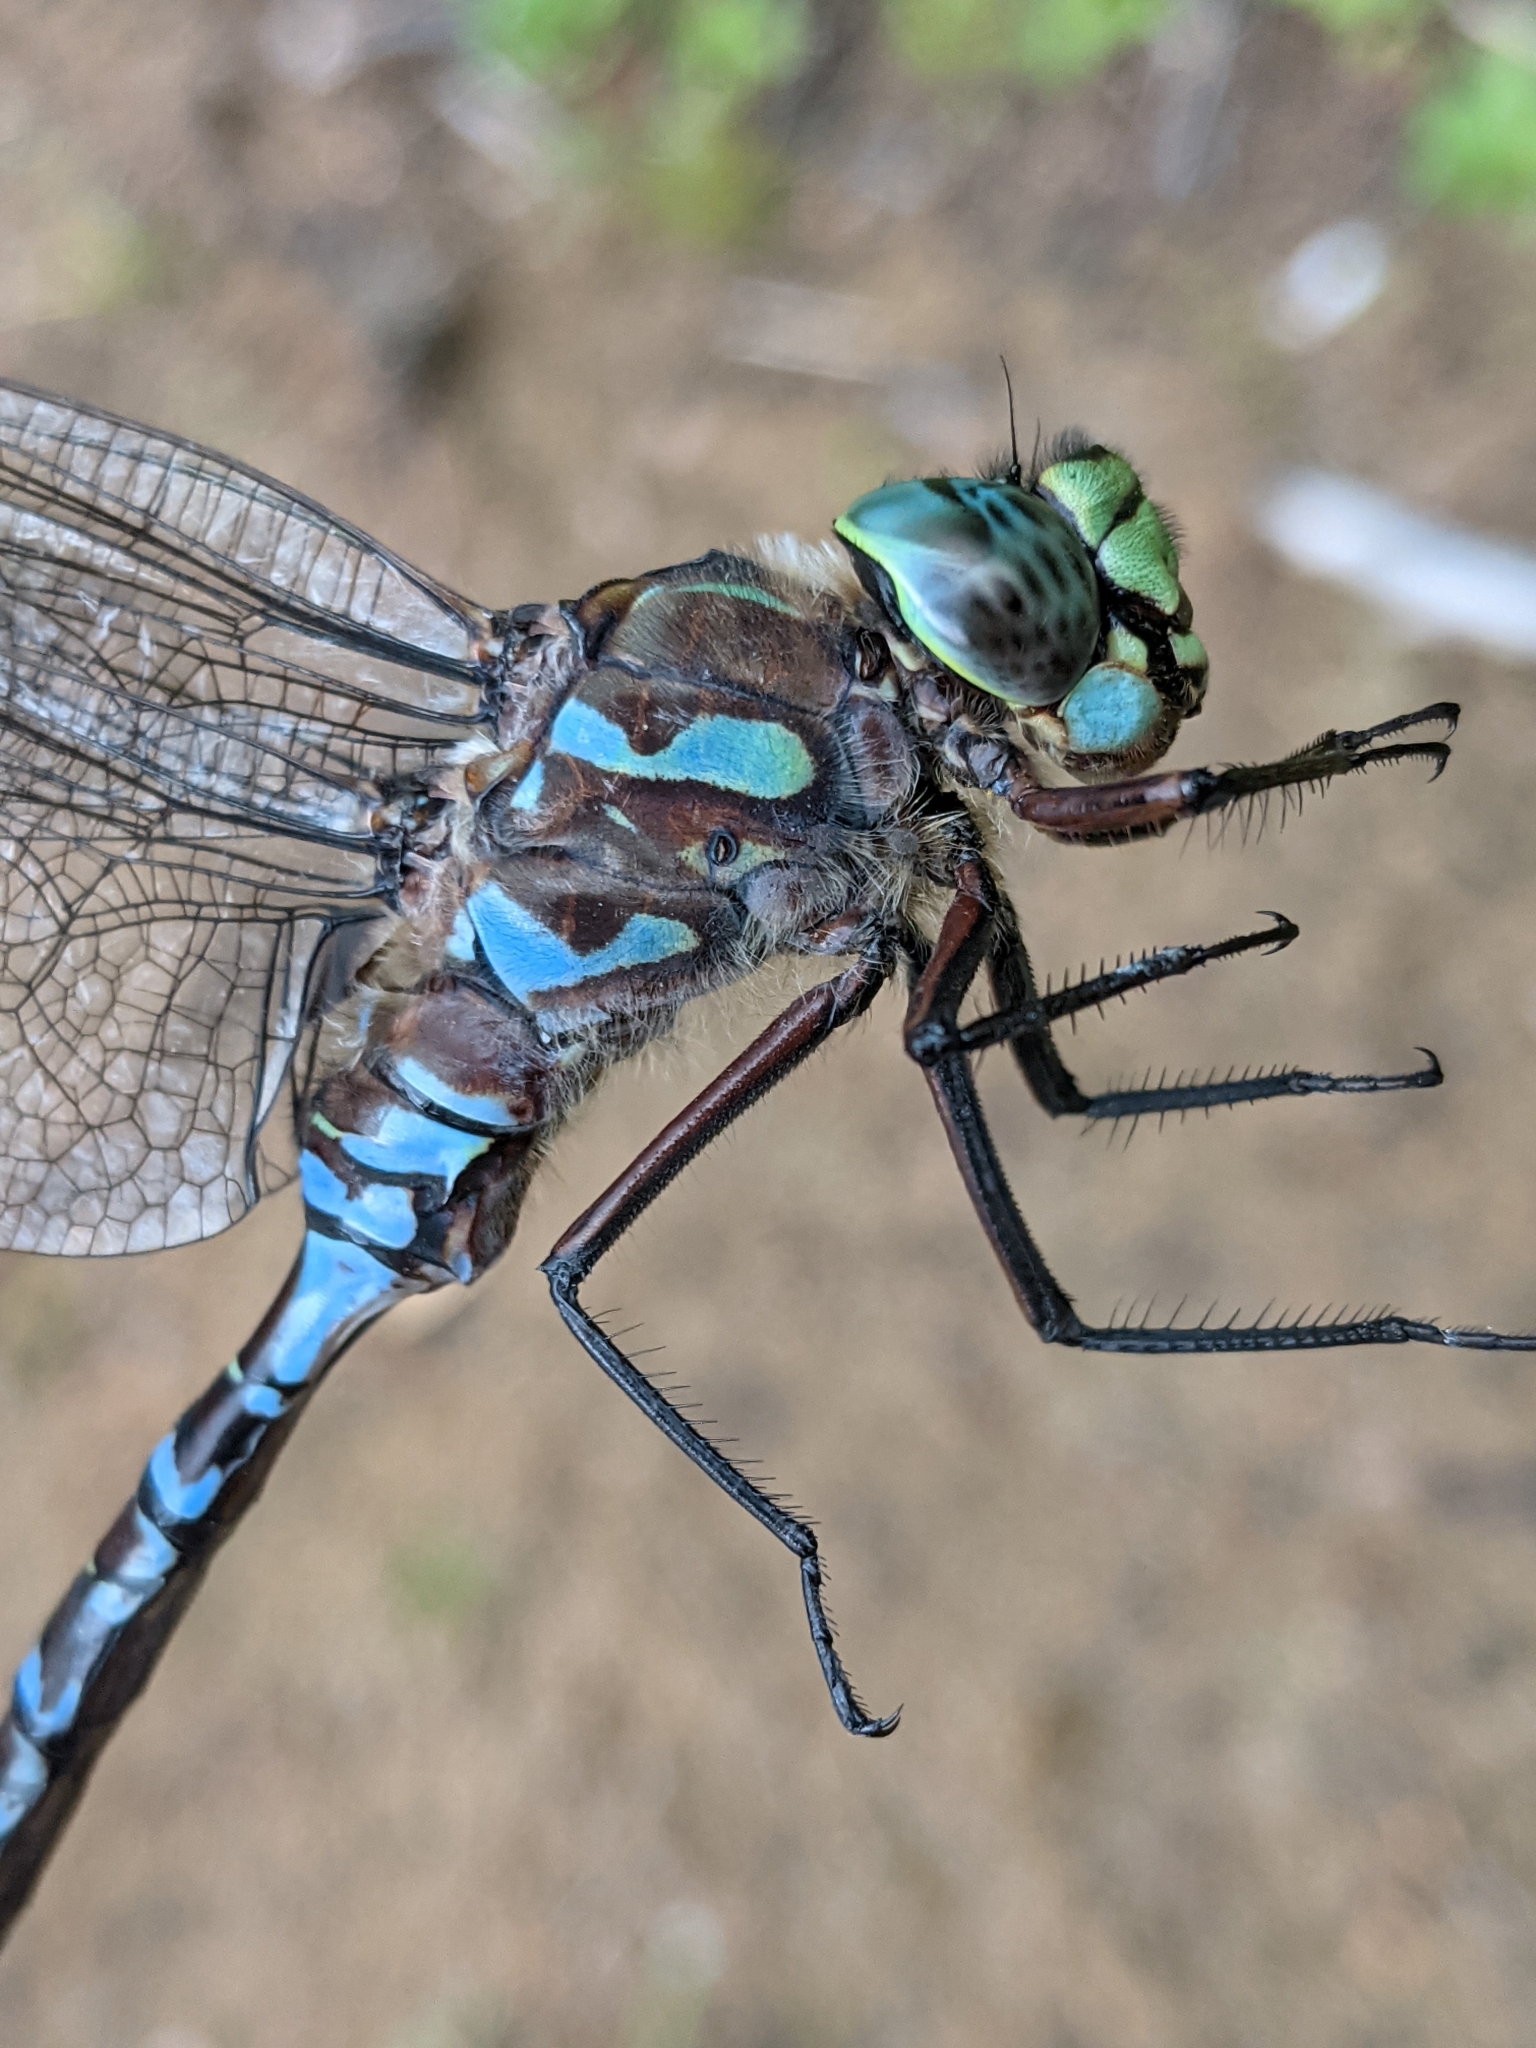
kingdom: Animalia
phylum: Arthropoda
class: Insecta
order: Odonata
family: Aeshnidae
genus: Aeshna
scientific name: Aeshna eremita
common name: Lake darner
